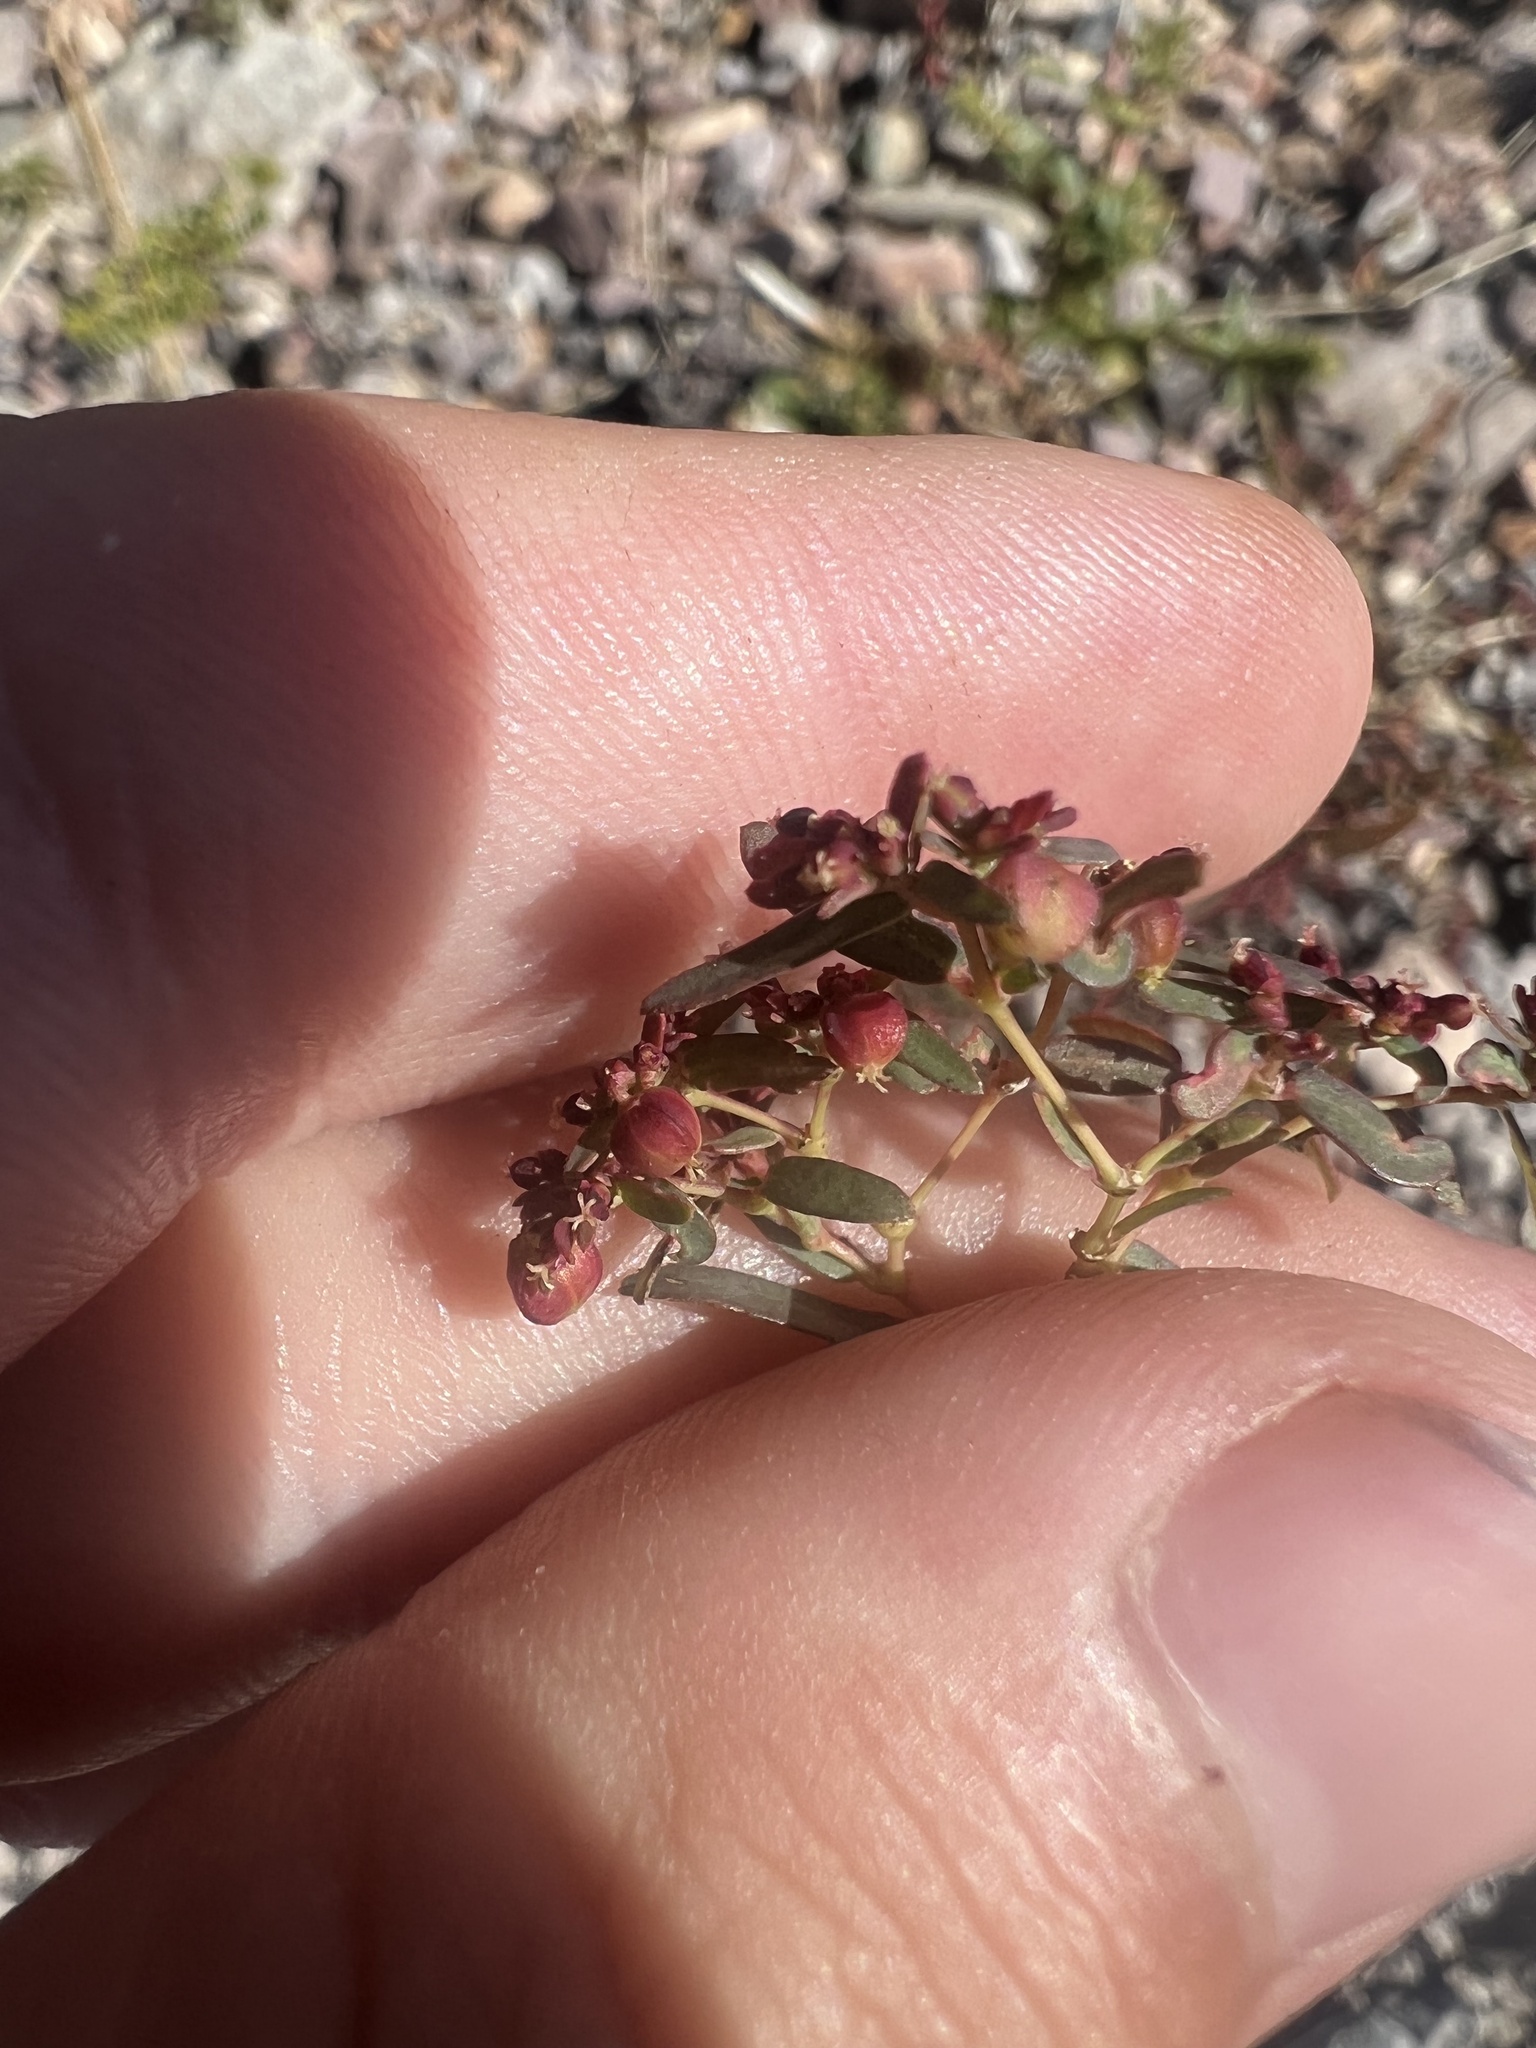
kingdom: Plantae
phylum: Tracheophyta
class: Magnoliopsida
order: Malpighiales
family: Euphorbiaceae
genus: Euphorbia
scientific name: Euphorbia hyssopifolia
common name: Hyssopleaf sandmat
